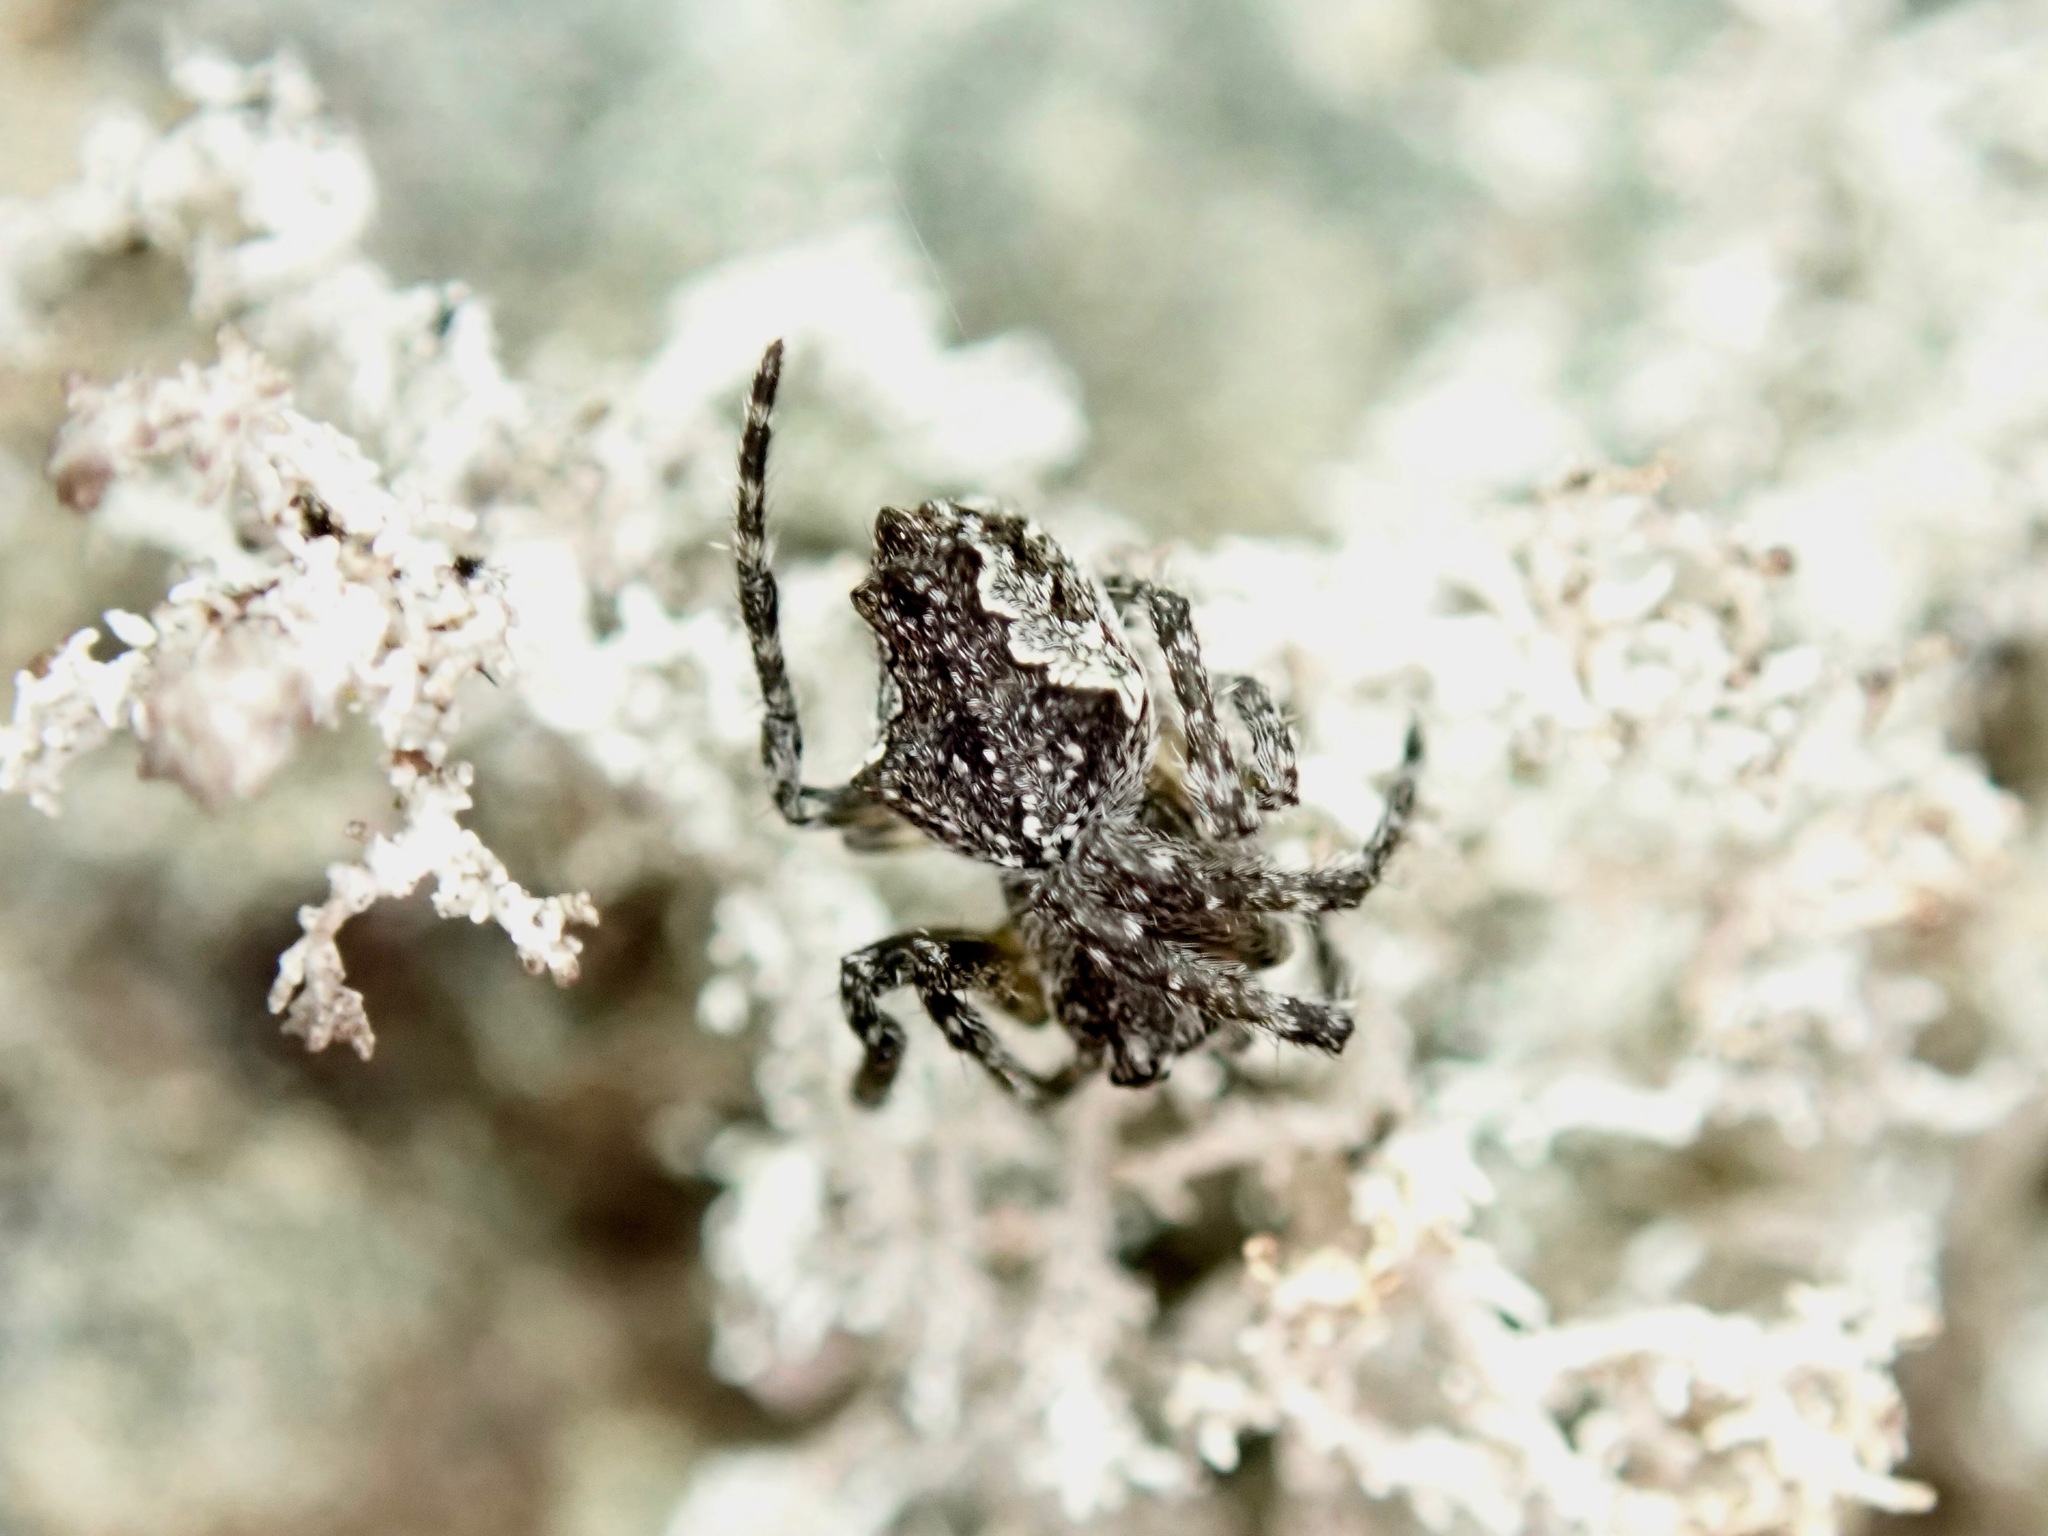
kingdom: Animalia
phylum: Arthropoda
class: Arachnida
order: Araneae
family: Araneidae
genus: Eriophora
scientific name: Eriophora pustulosa
